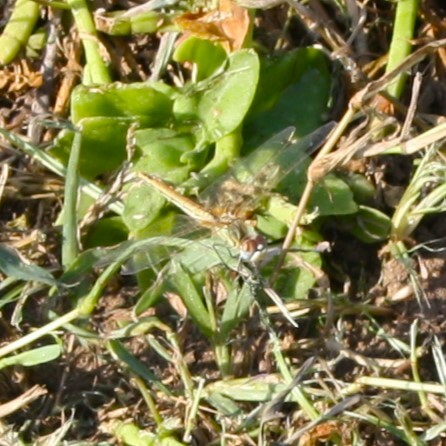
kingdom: Animalia
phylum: Arthropoda
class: Insecta
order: Odonata
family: Libellulidae
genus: Sympetrum
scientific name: Sympetrum fonscolombii
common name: Red-veined darter
